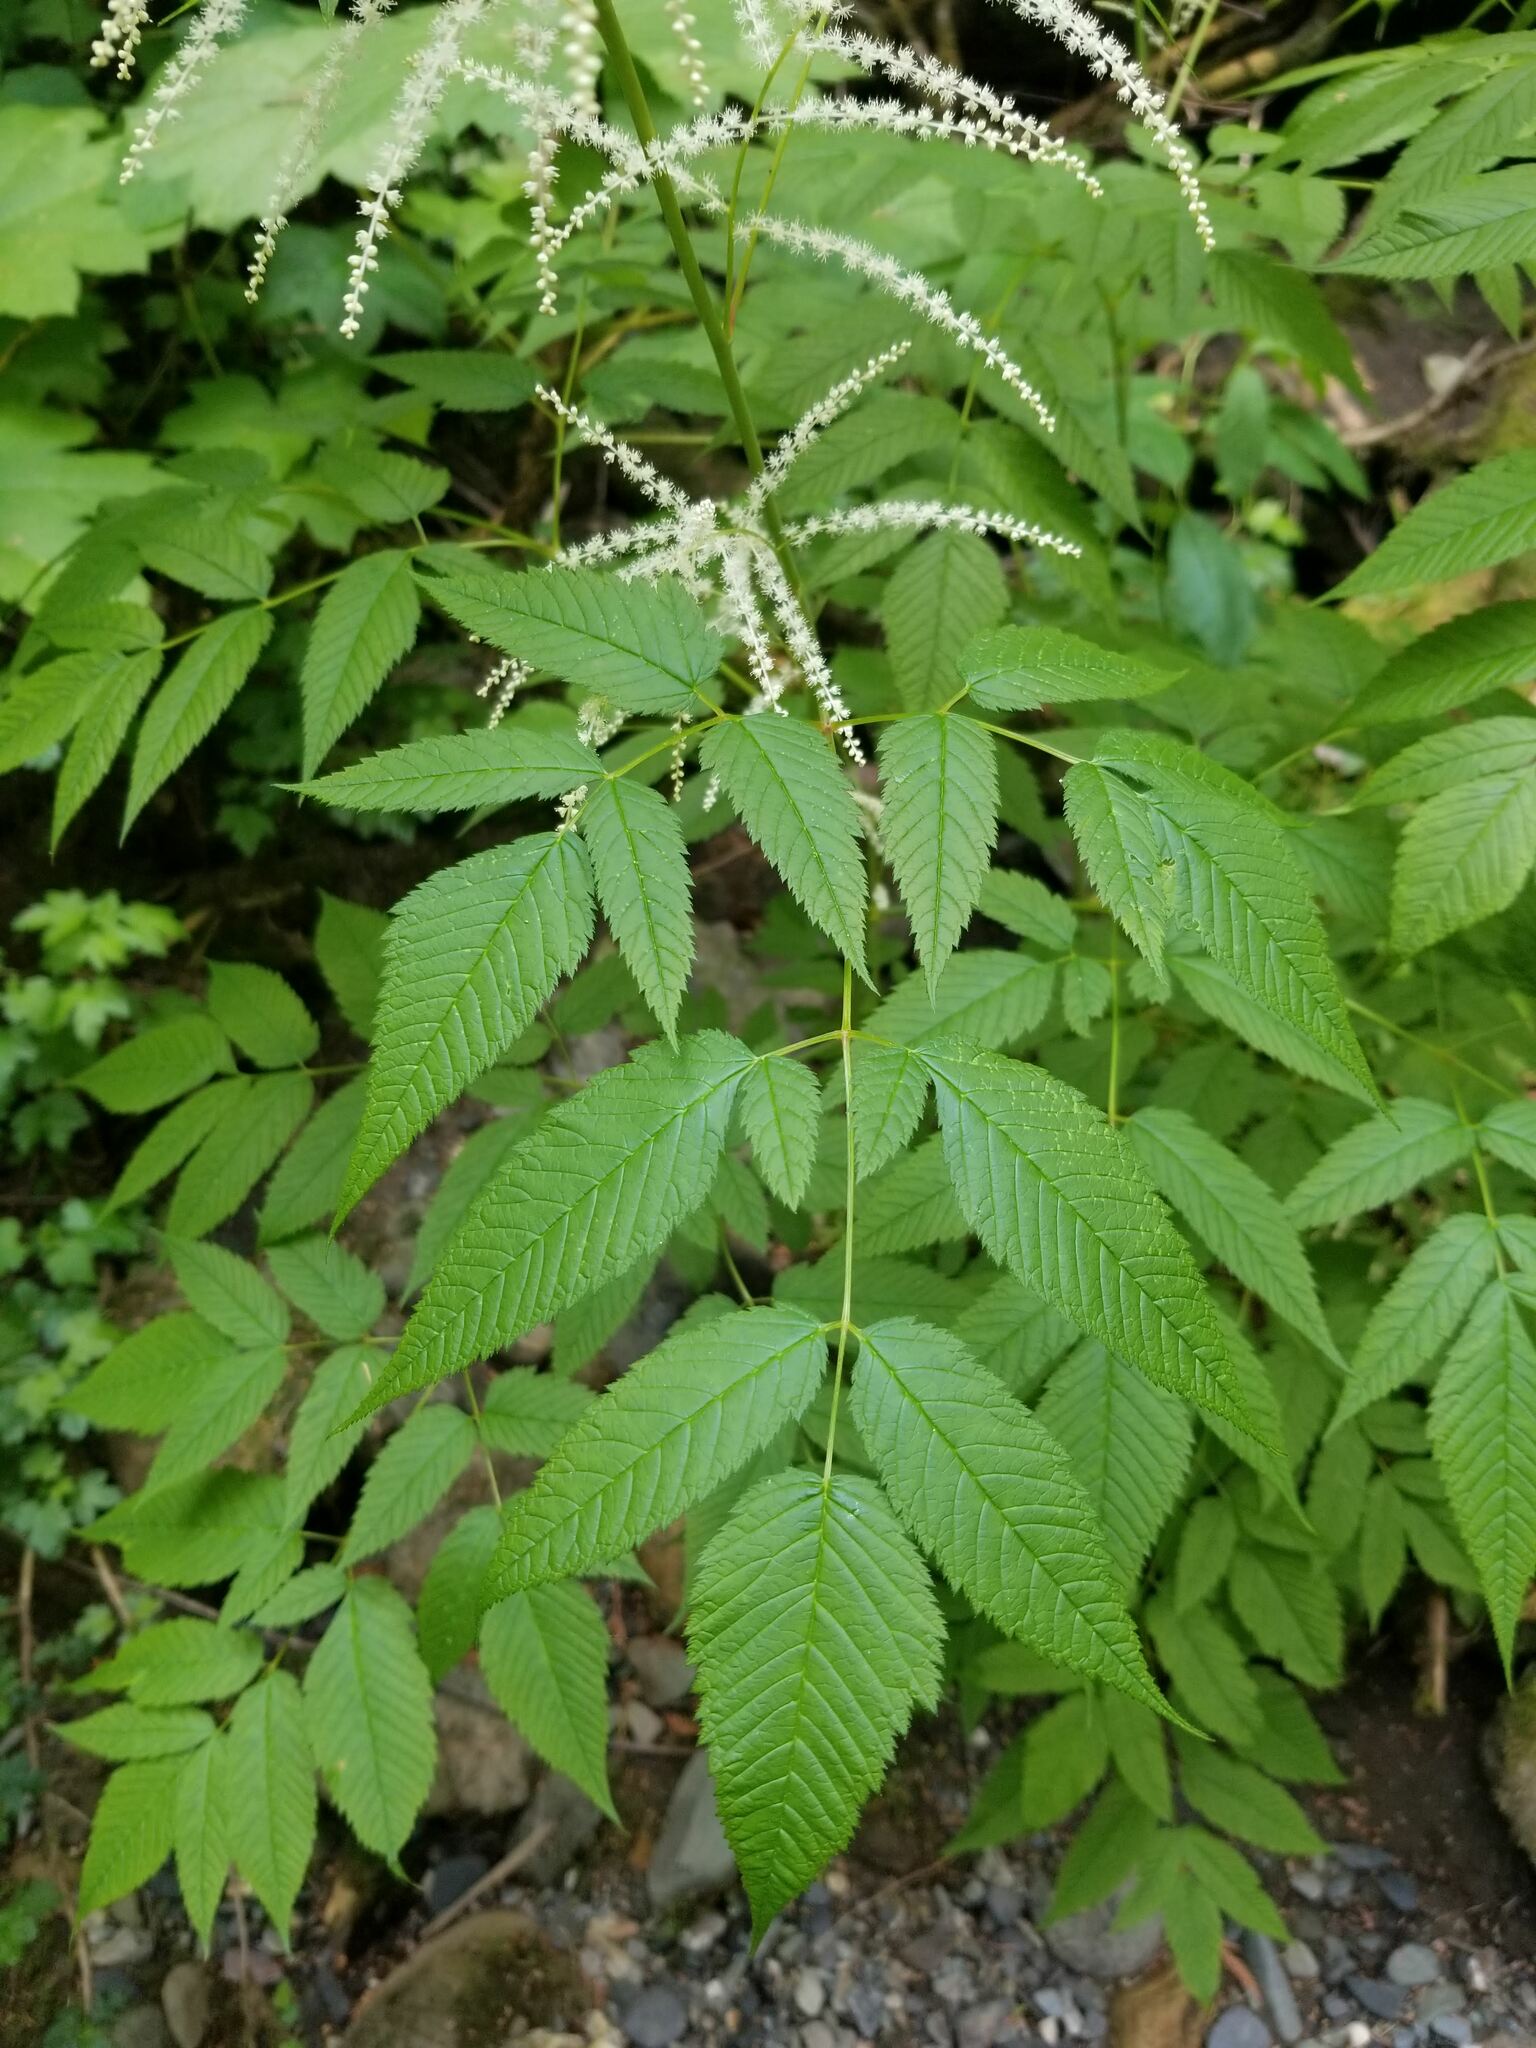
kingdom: Plantae
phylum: Tracheophyta
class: Magnoliopsida
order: Rosales
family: Rosaceae
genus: Aruncus
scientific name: Aruncus dioicus
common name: Buck's-beard
